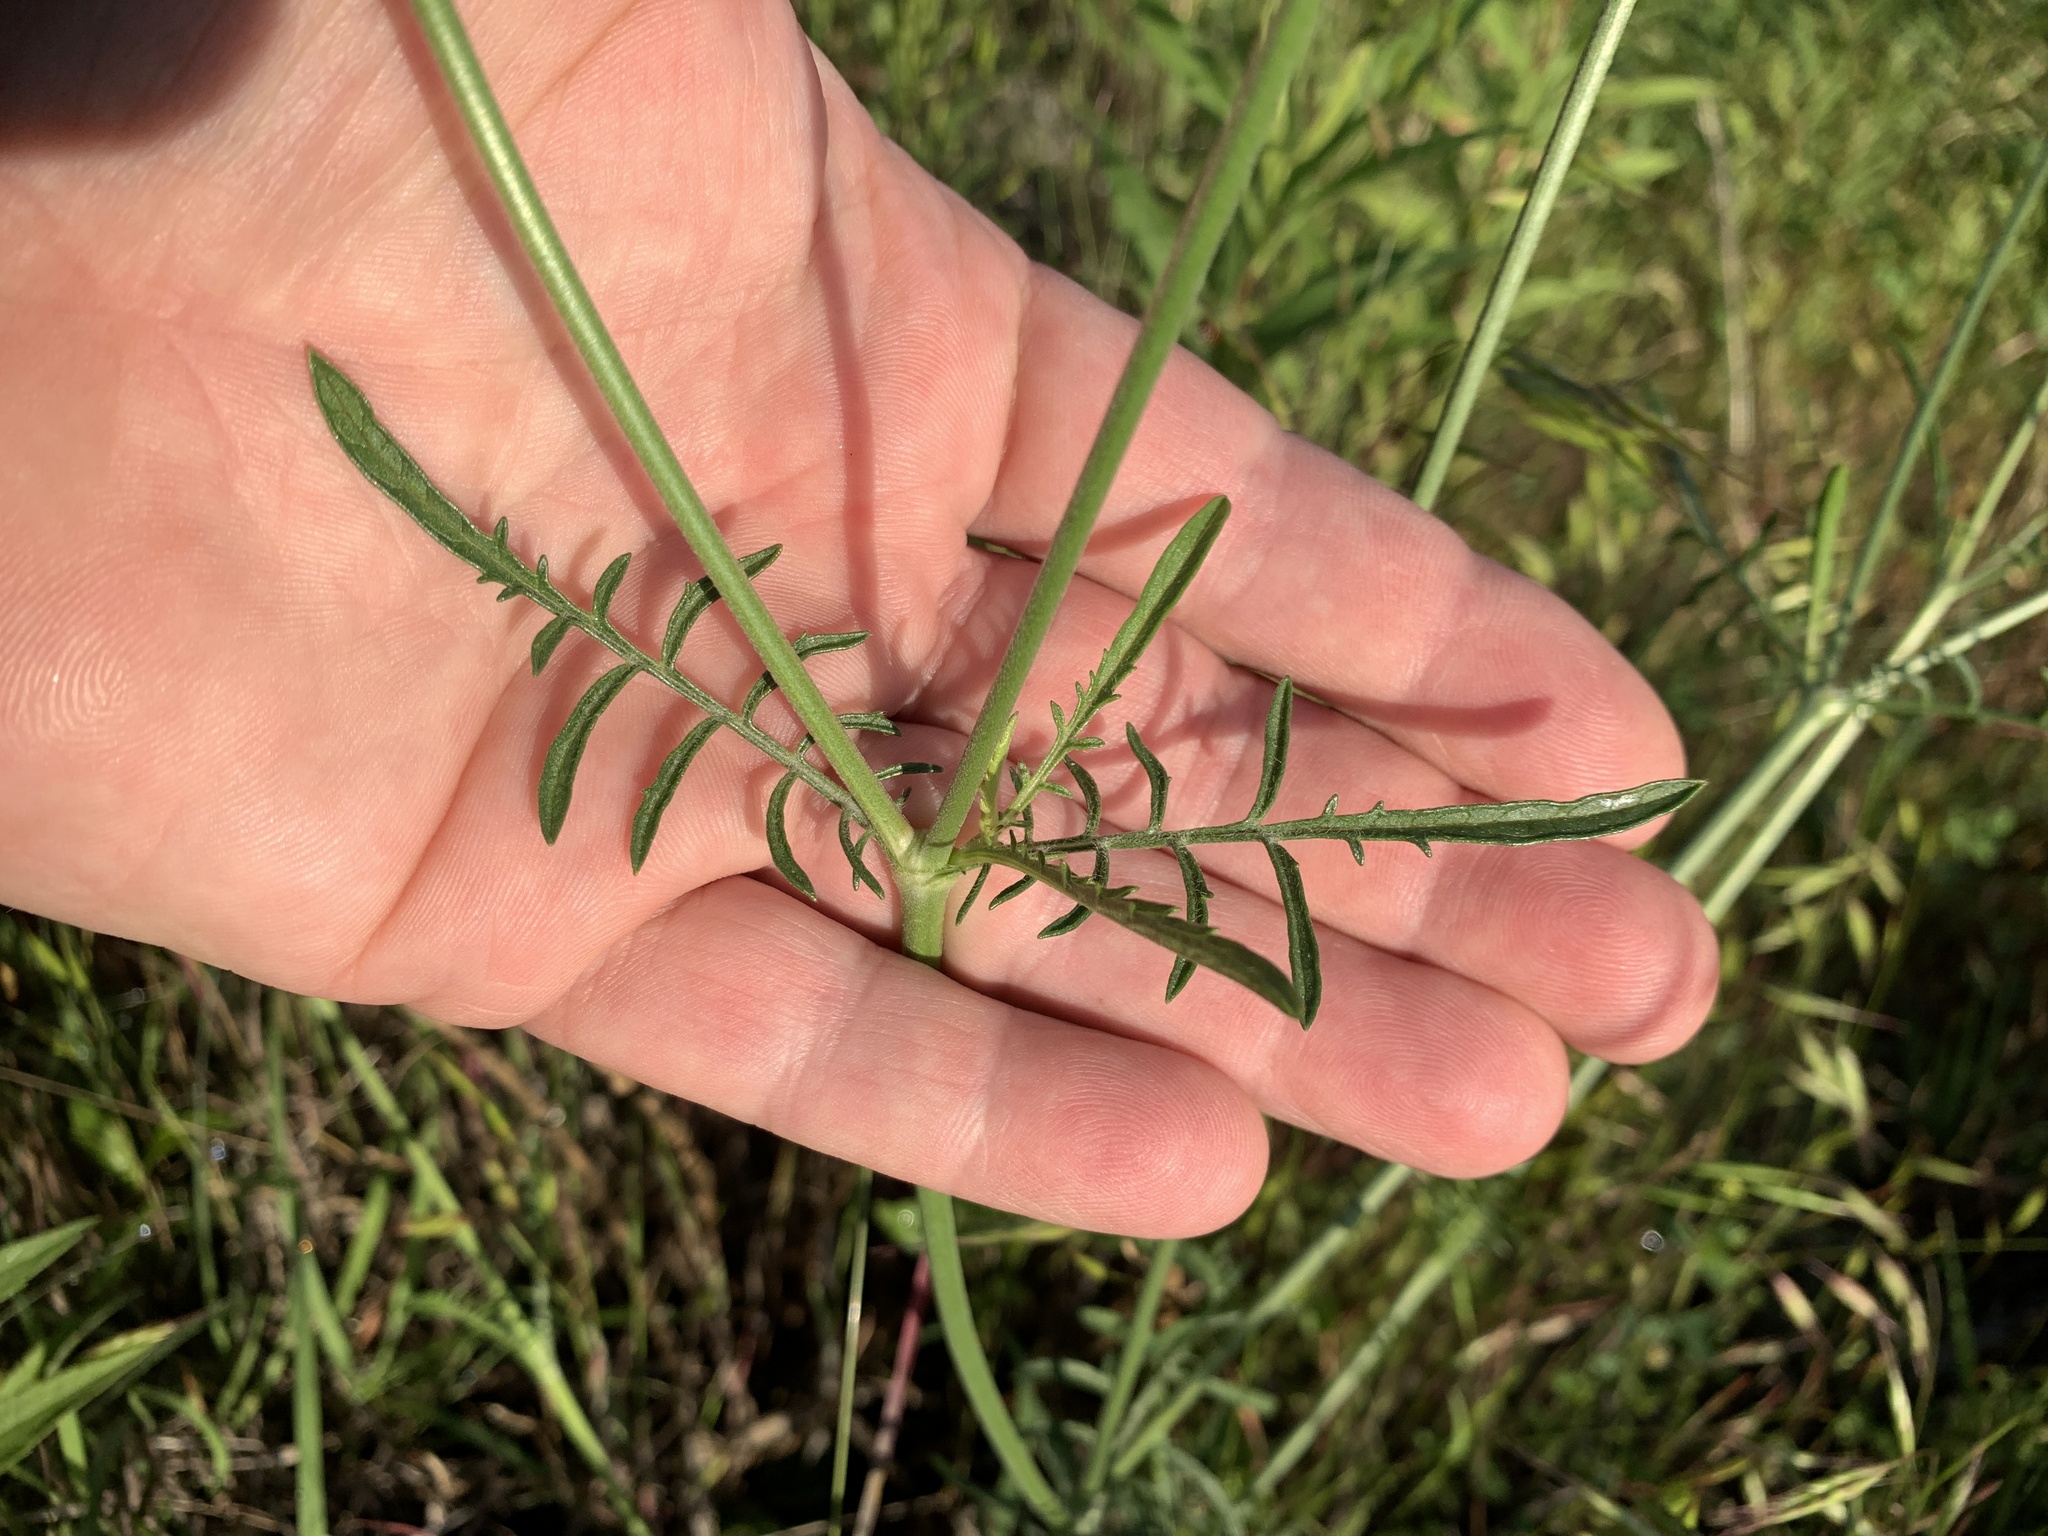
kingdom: Plantae
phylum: Tracheophyta
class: Magnoliopsida
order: Dipsacales
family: Caprifoliaceae
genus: Sixalix
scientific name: Sixalix atropurpurea
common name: Sweet scabious
